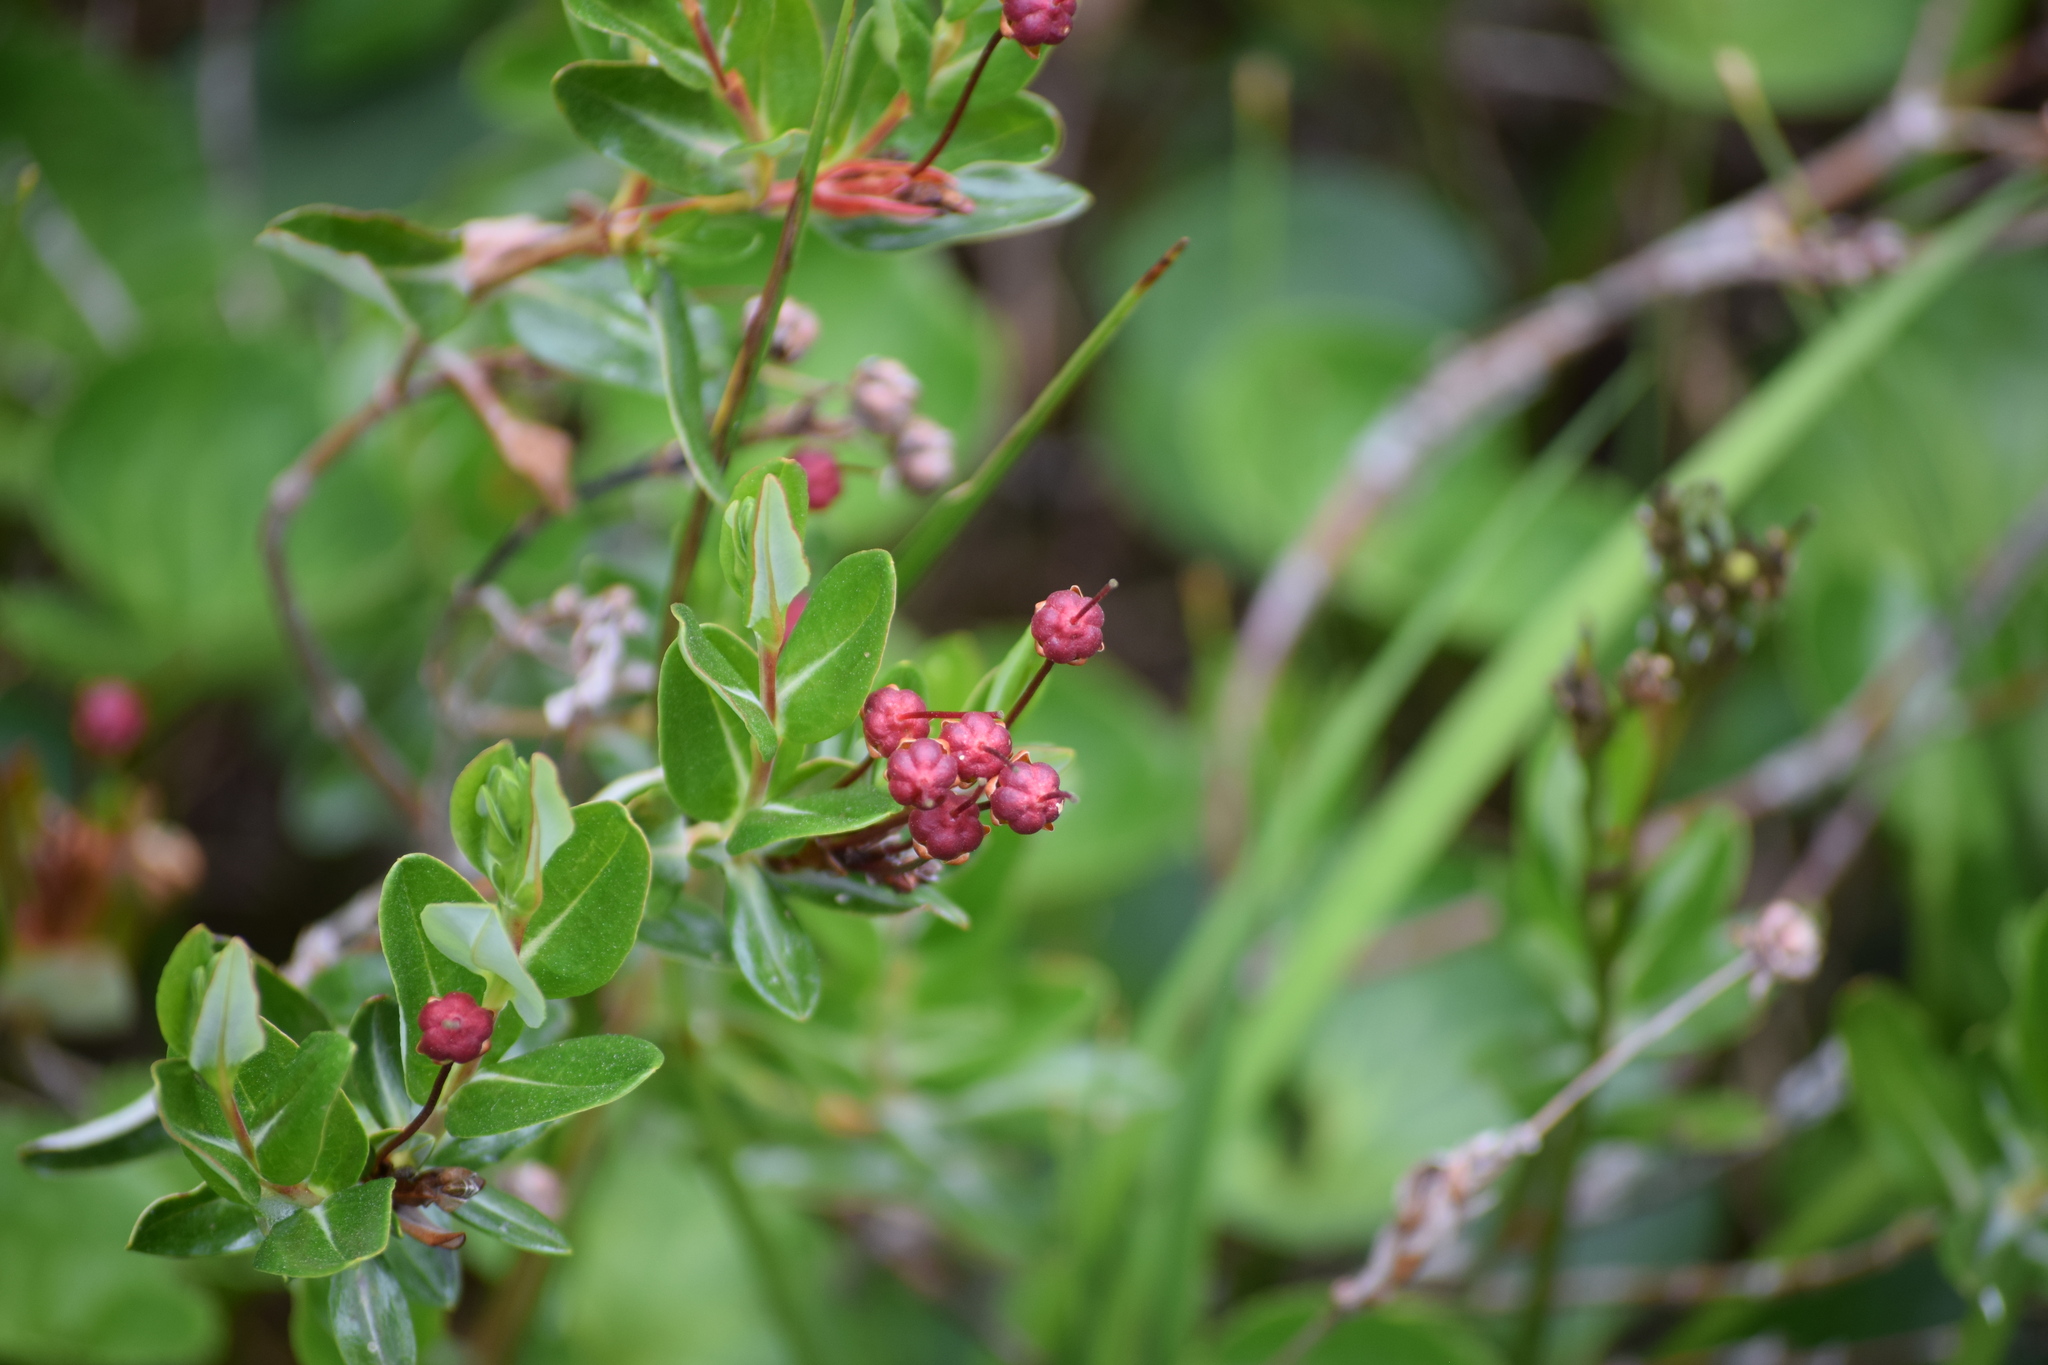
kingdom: Plantae
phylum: Tracheophyta
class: Magnoliopsida
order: Ericales
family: Ericaceae
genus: Kalmia
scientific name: Kalmia microphylla
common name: Alpine bog laurel
